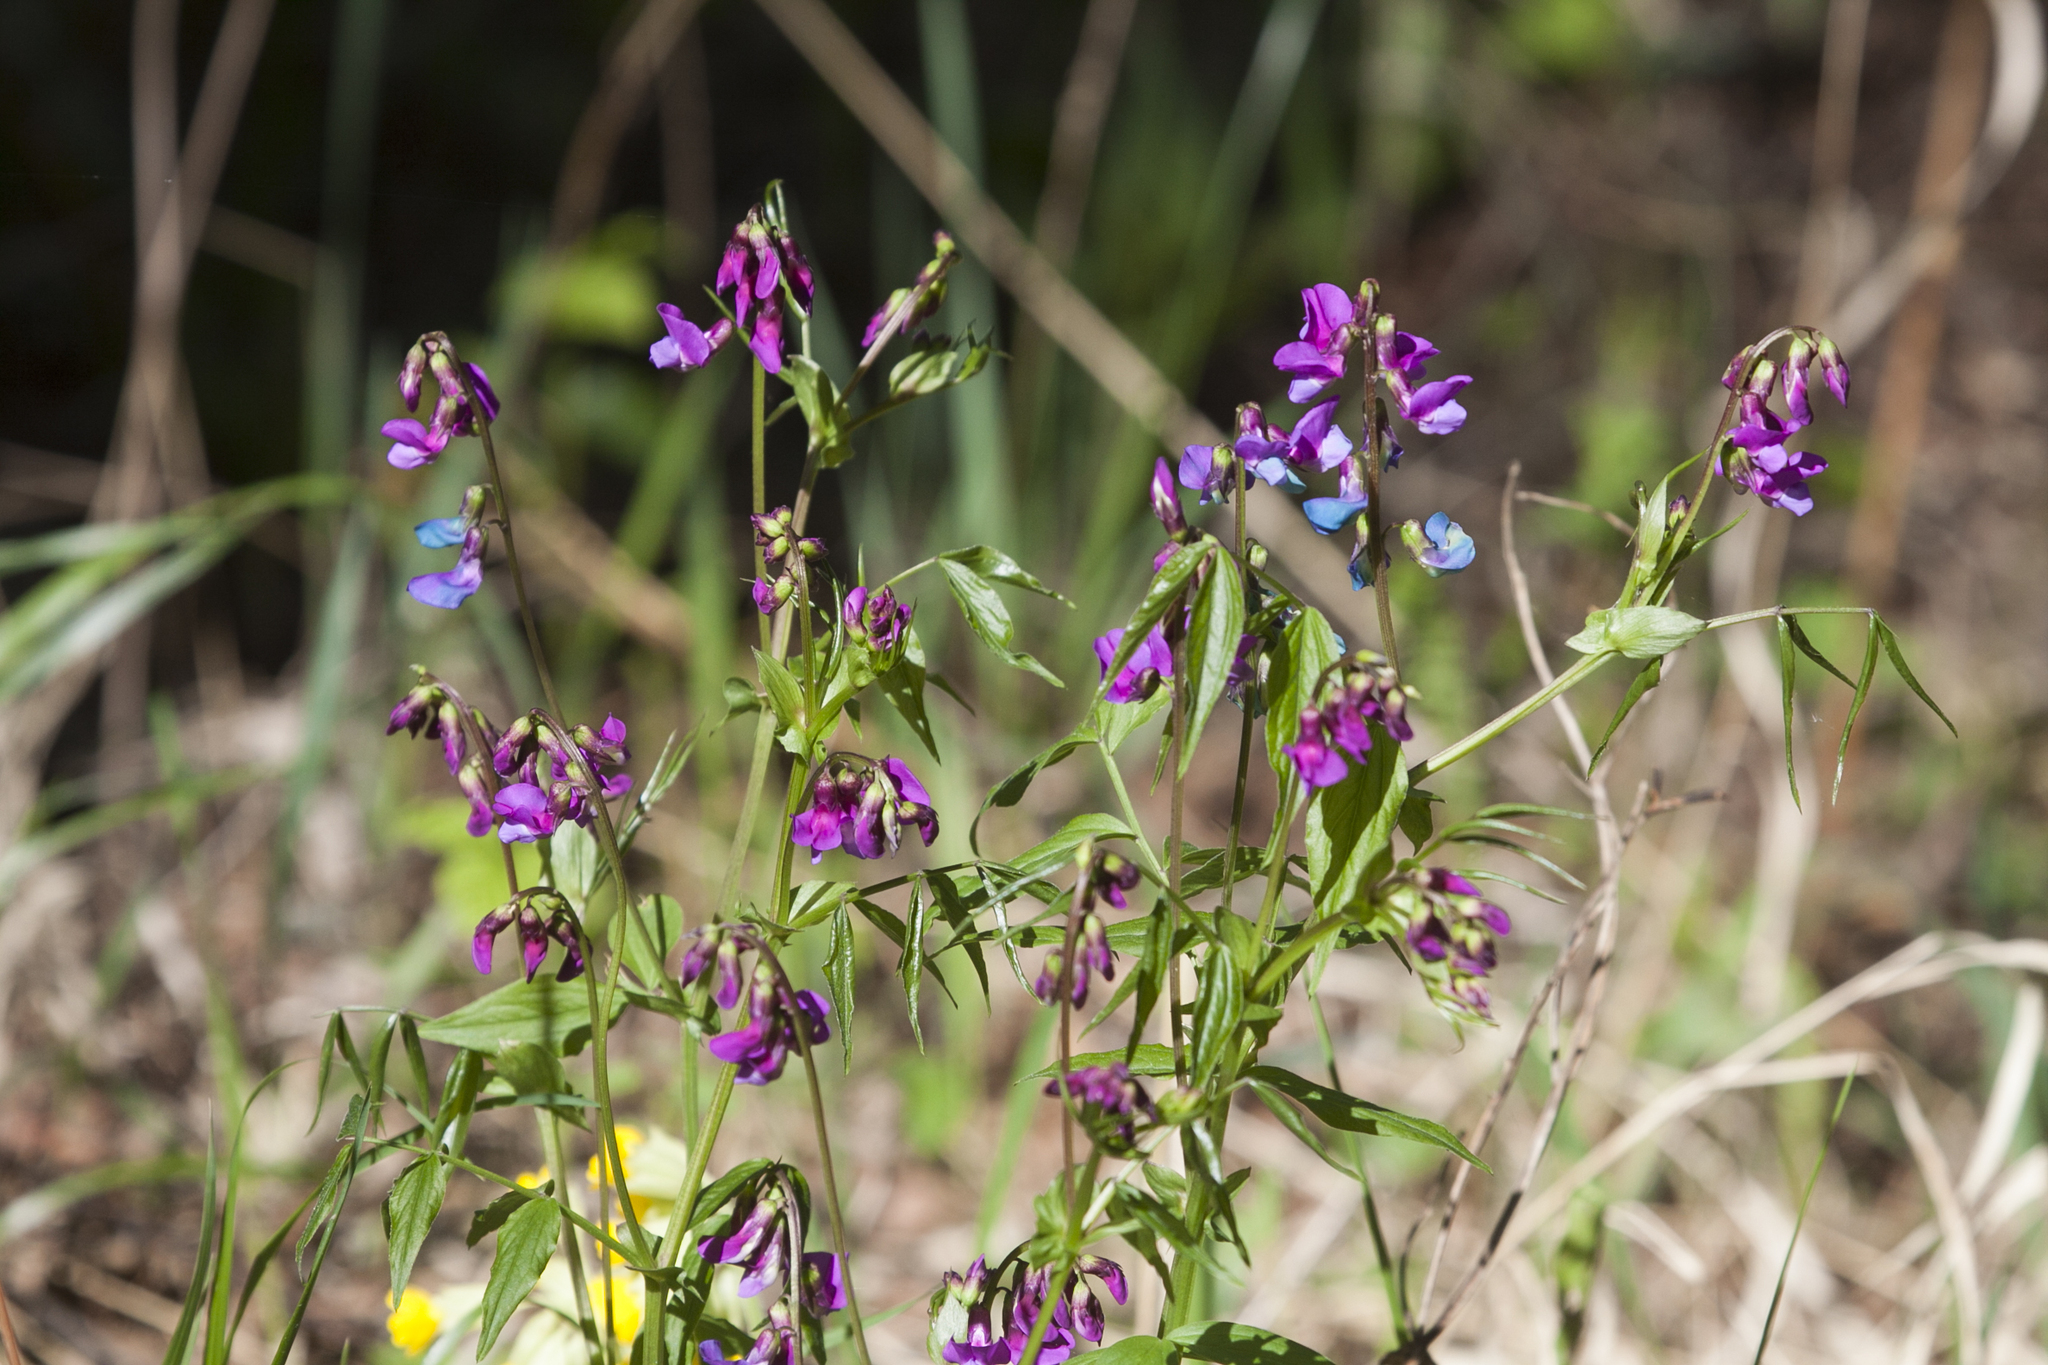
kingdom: Plantae
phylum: Tracheophyta
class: Magnoliopsida
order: Fabales
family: Fabaceae
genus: Lathyrus
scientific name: Lathyrus vernus
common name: Spring pea
